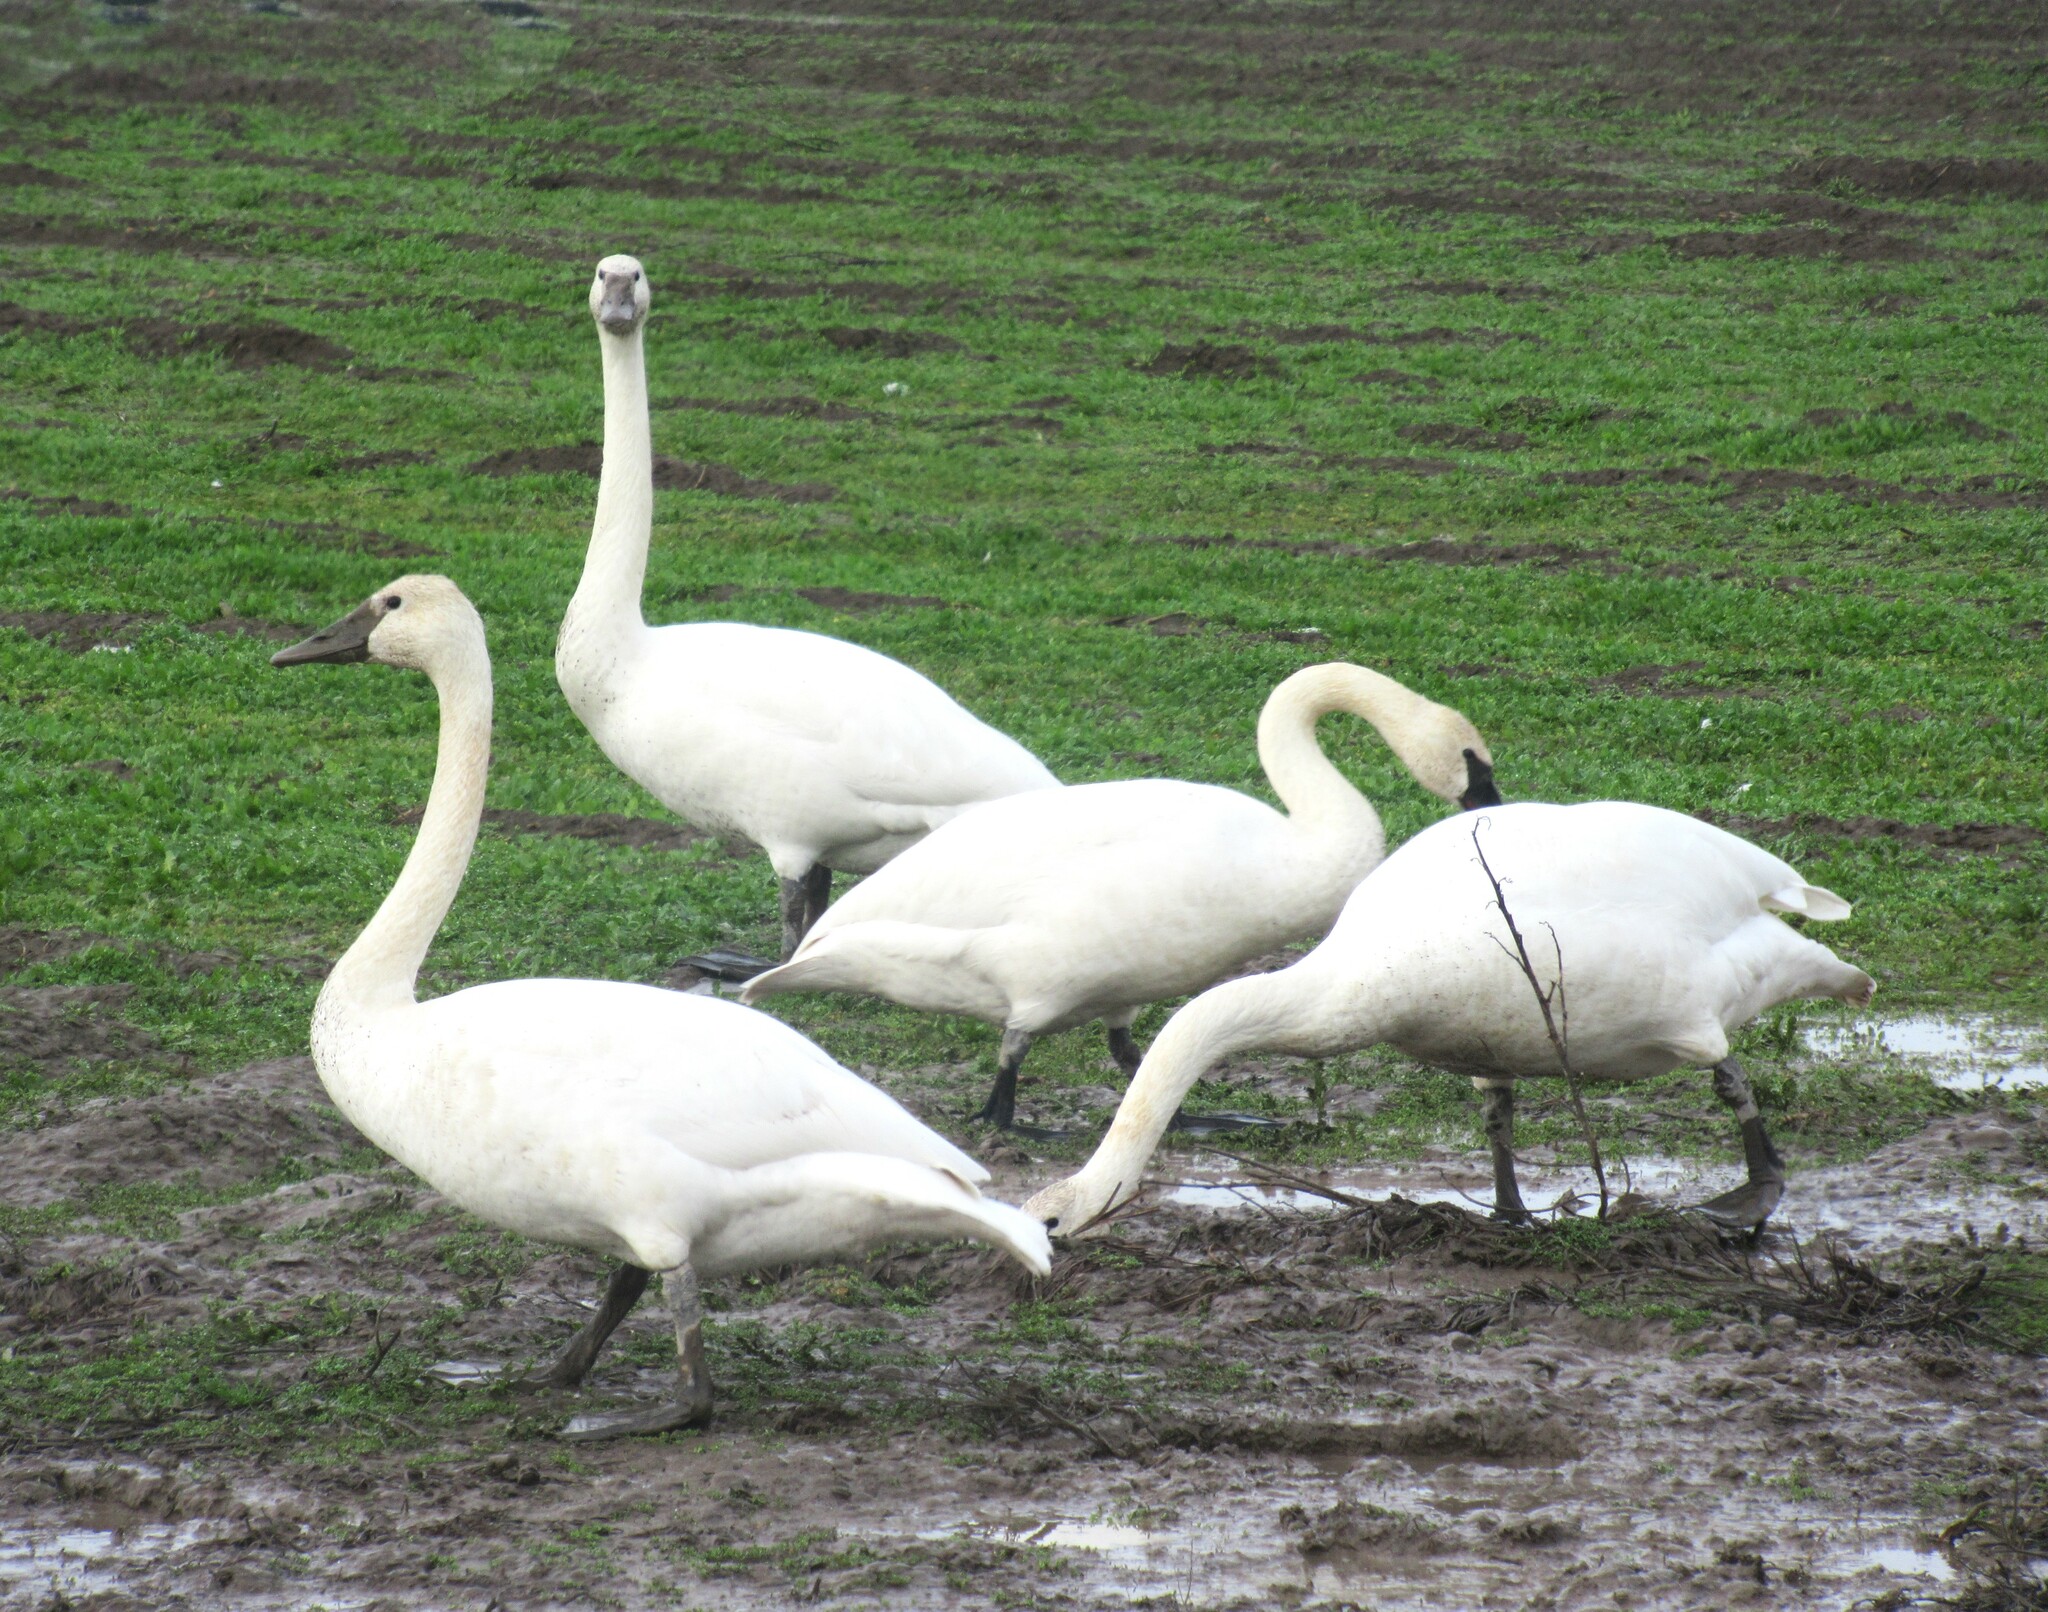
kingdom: Animalia
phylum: Chordata
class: Aves
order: Anseriformes
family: Anatidae
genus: Cygnus
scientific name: Cygnus buccinator
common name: Trumpeter swan
